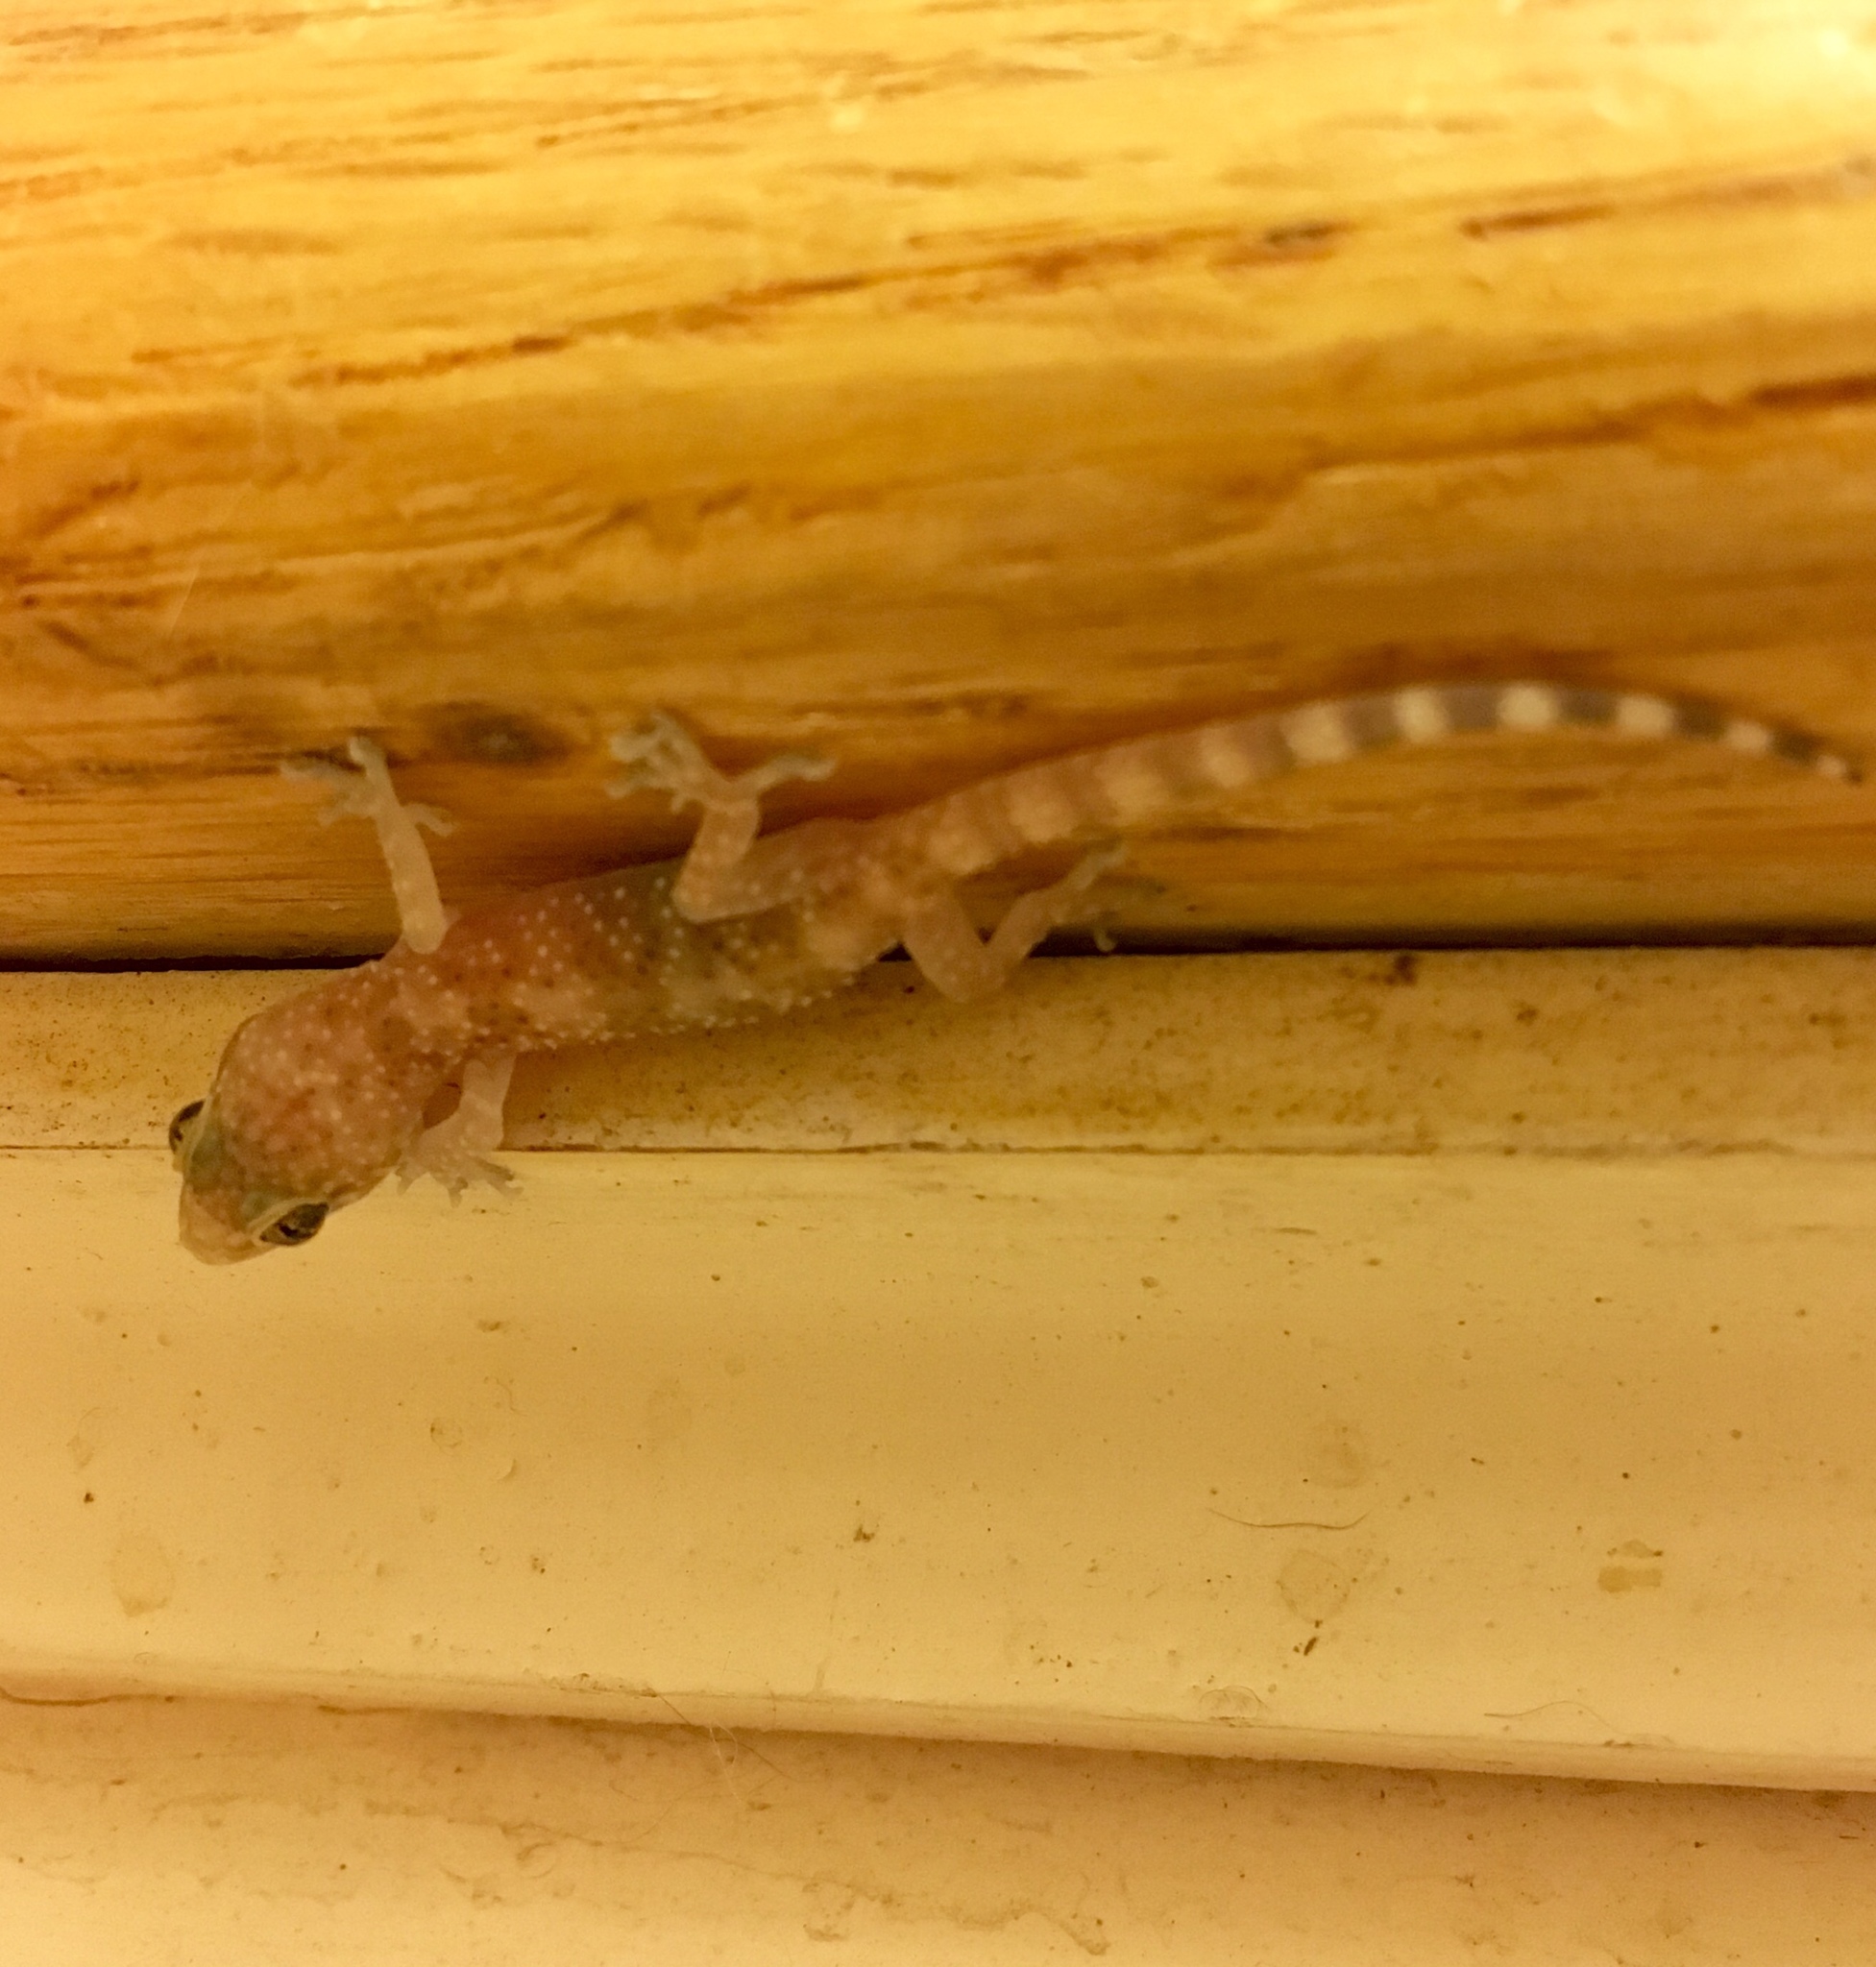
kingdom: Animalia
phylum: Chordata
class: Squamata
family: Gekkonidae
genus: Hemidactylus
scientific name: Hemidactylus turcicus
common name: Turkish gecko
